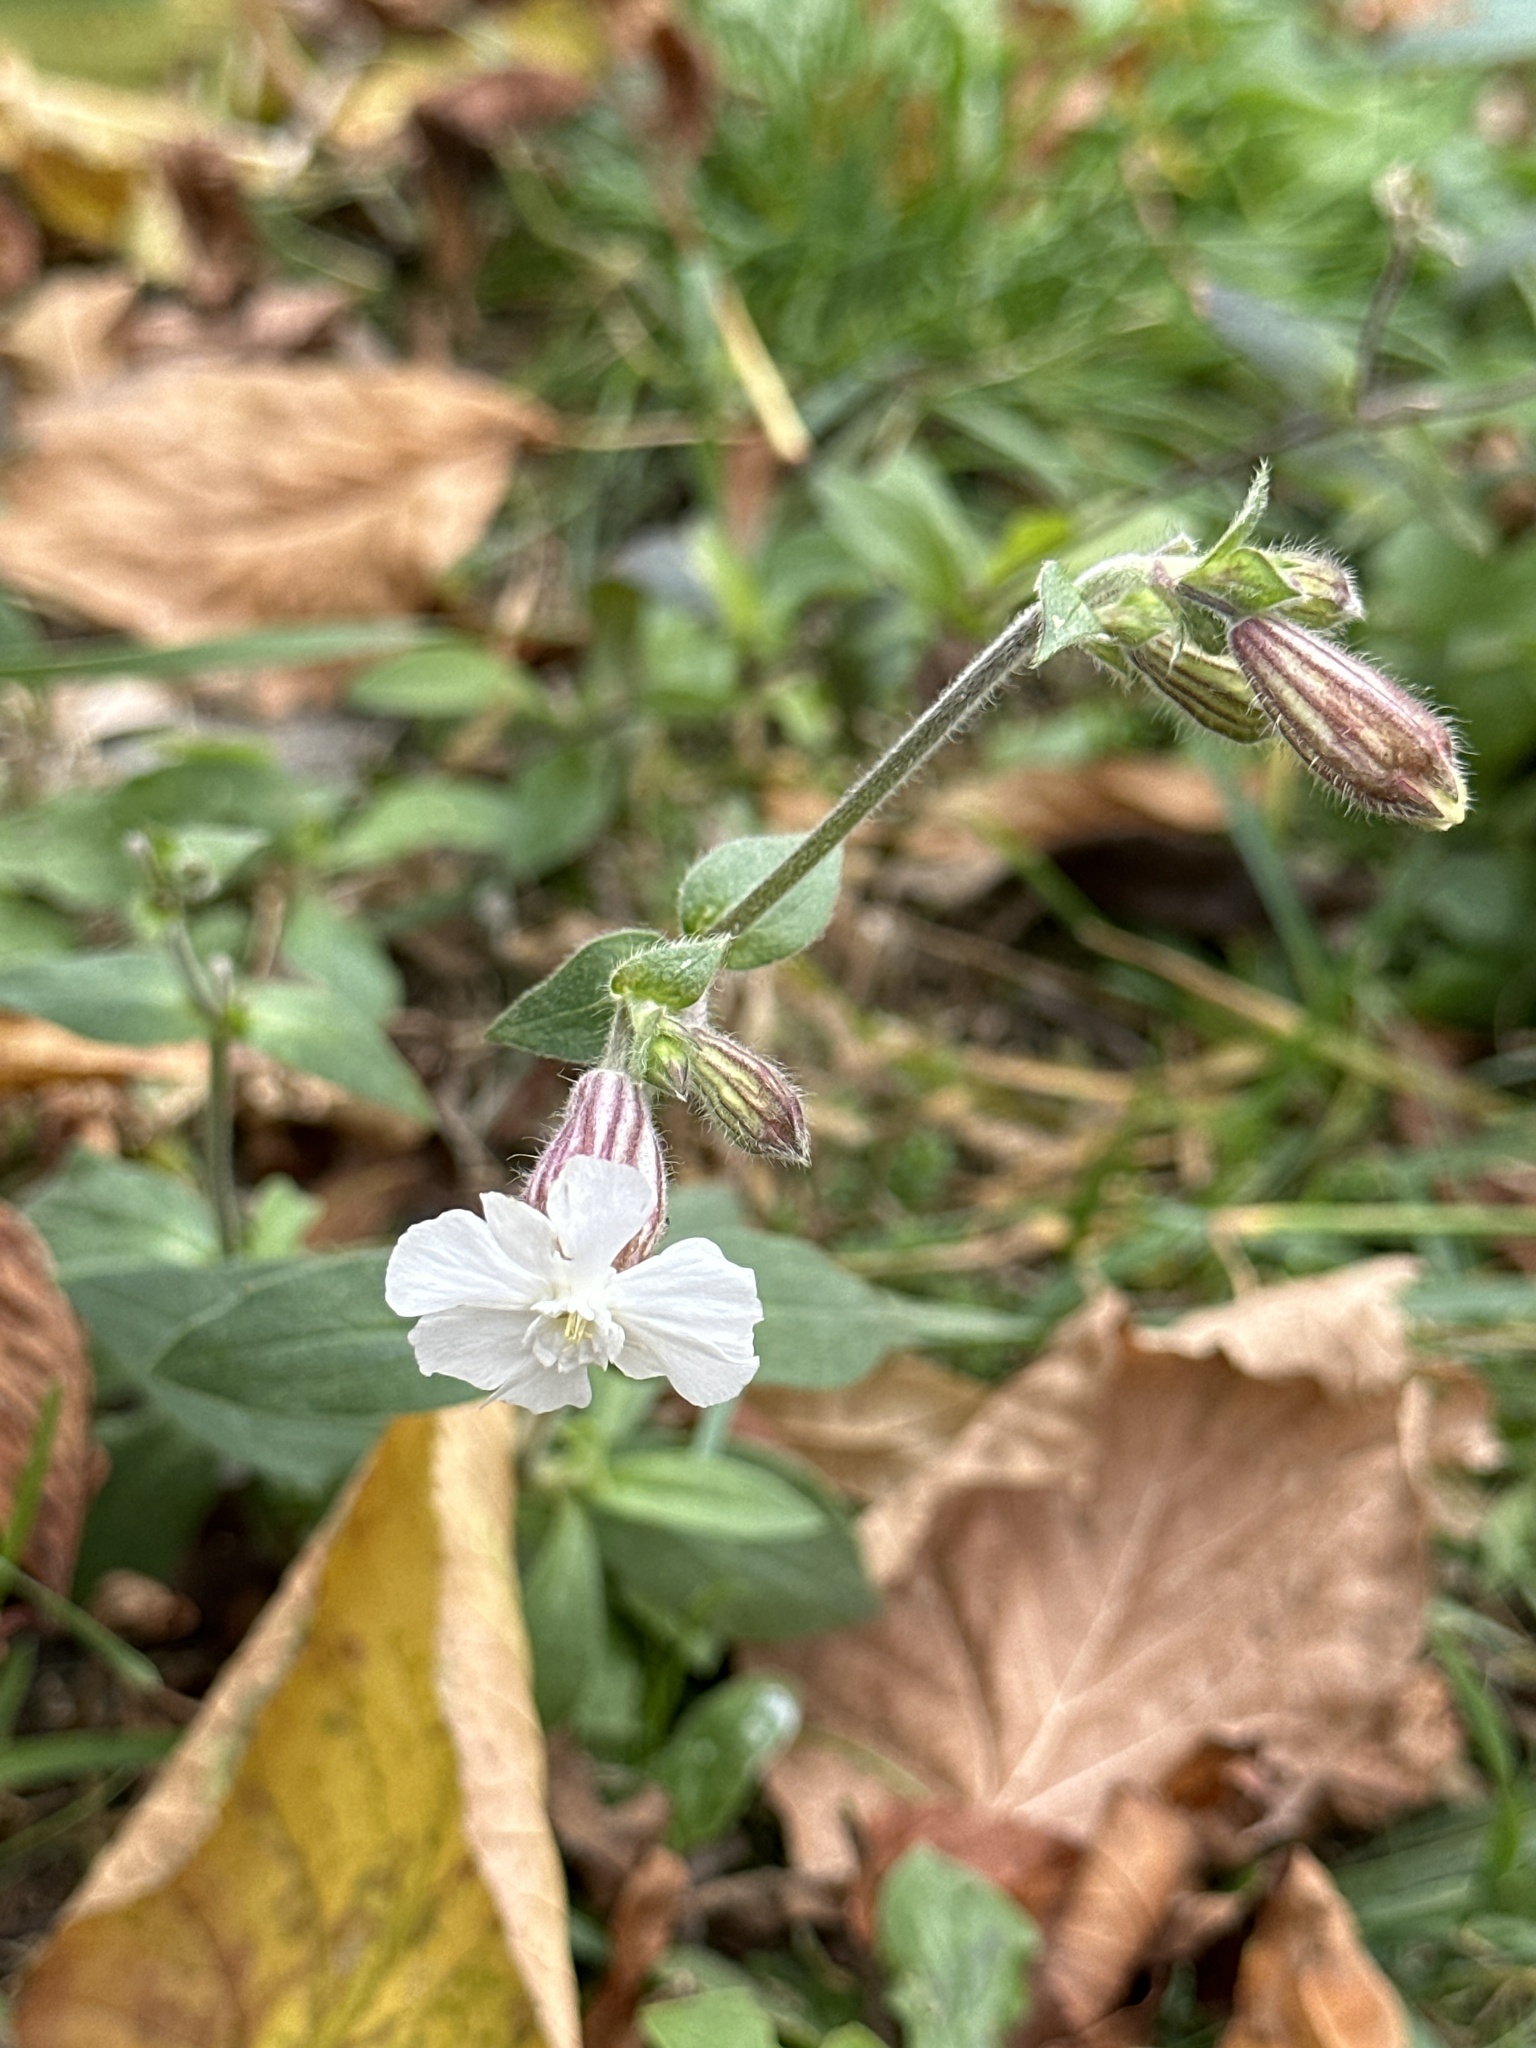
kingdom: Plantae
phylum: Tracheophyta
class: Magnoliopsida
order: Caryophyllales
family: Caryophyllaceae
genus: Silene
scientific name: Silene latifolia
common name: White campion
